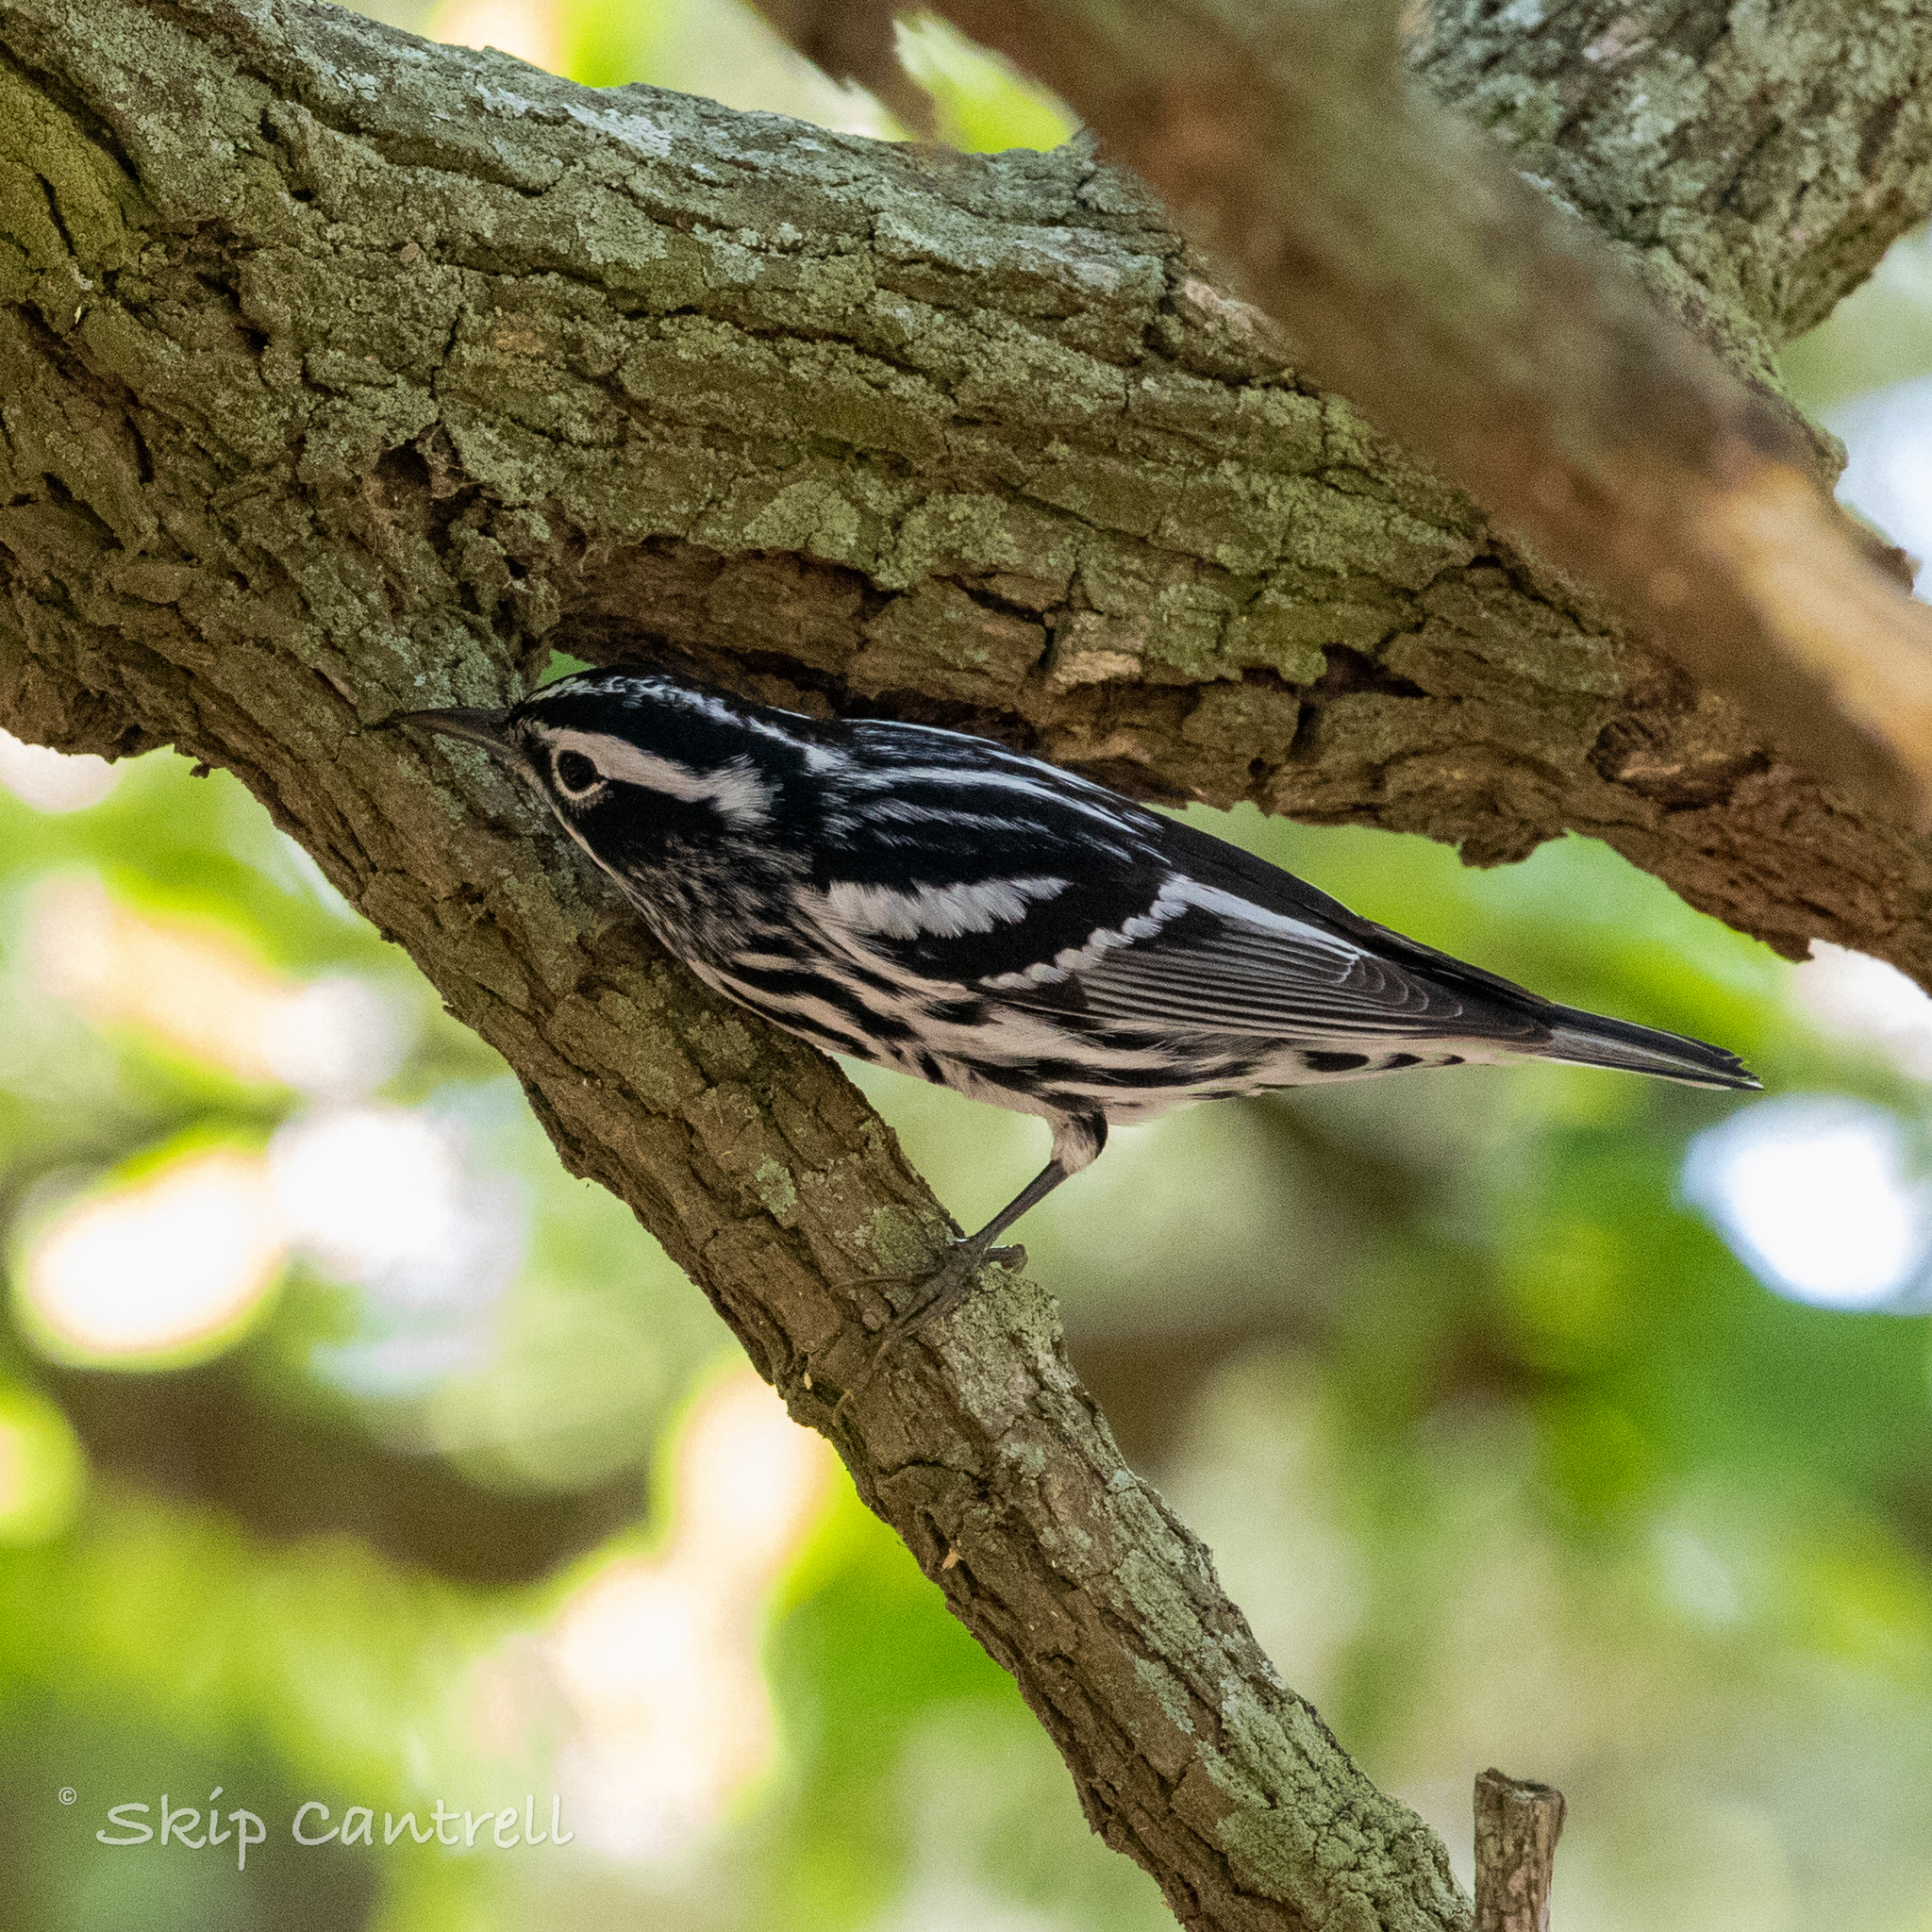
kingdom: Animalia
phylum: Chordata
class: Aves
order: Passeriformes
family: Parulidae
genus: Mniotilta
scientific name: Mniotilta varia
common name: Black-and-white warbler
